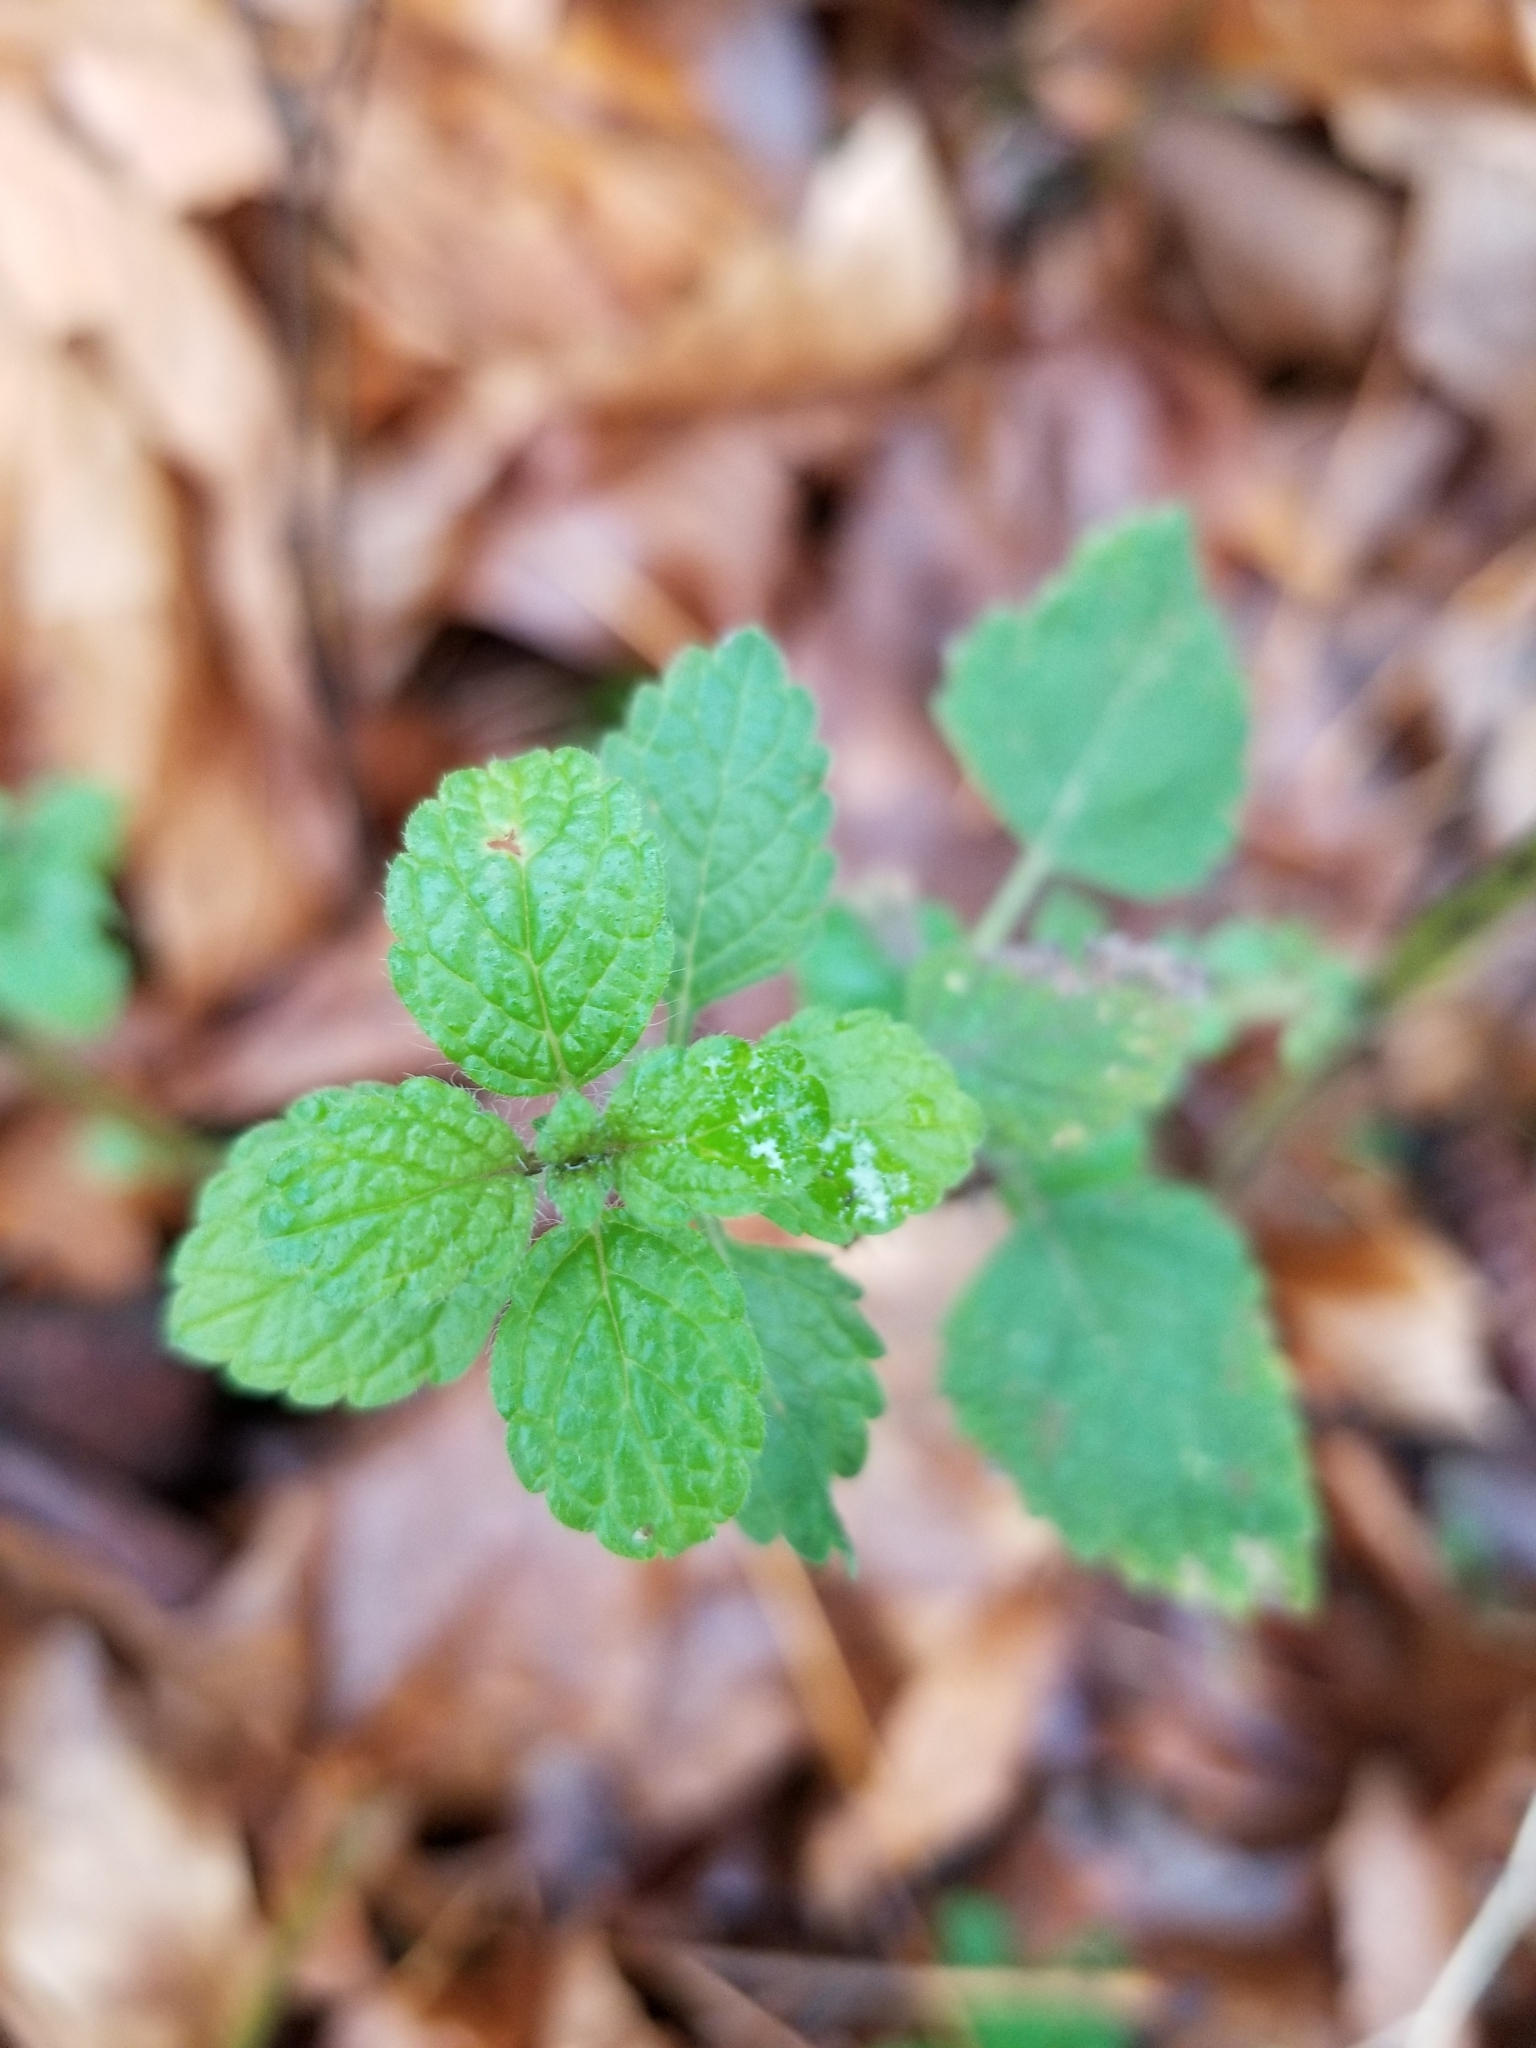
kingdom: Plantae
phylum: Tracheophyta
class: Magnoliopsida
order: Lamiales
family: Lamiaceae
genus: Melissa
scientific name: Melissa officinalis
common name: Balm
